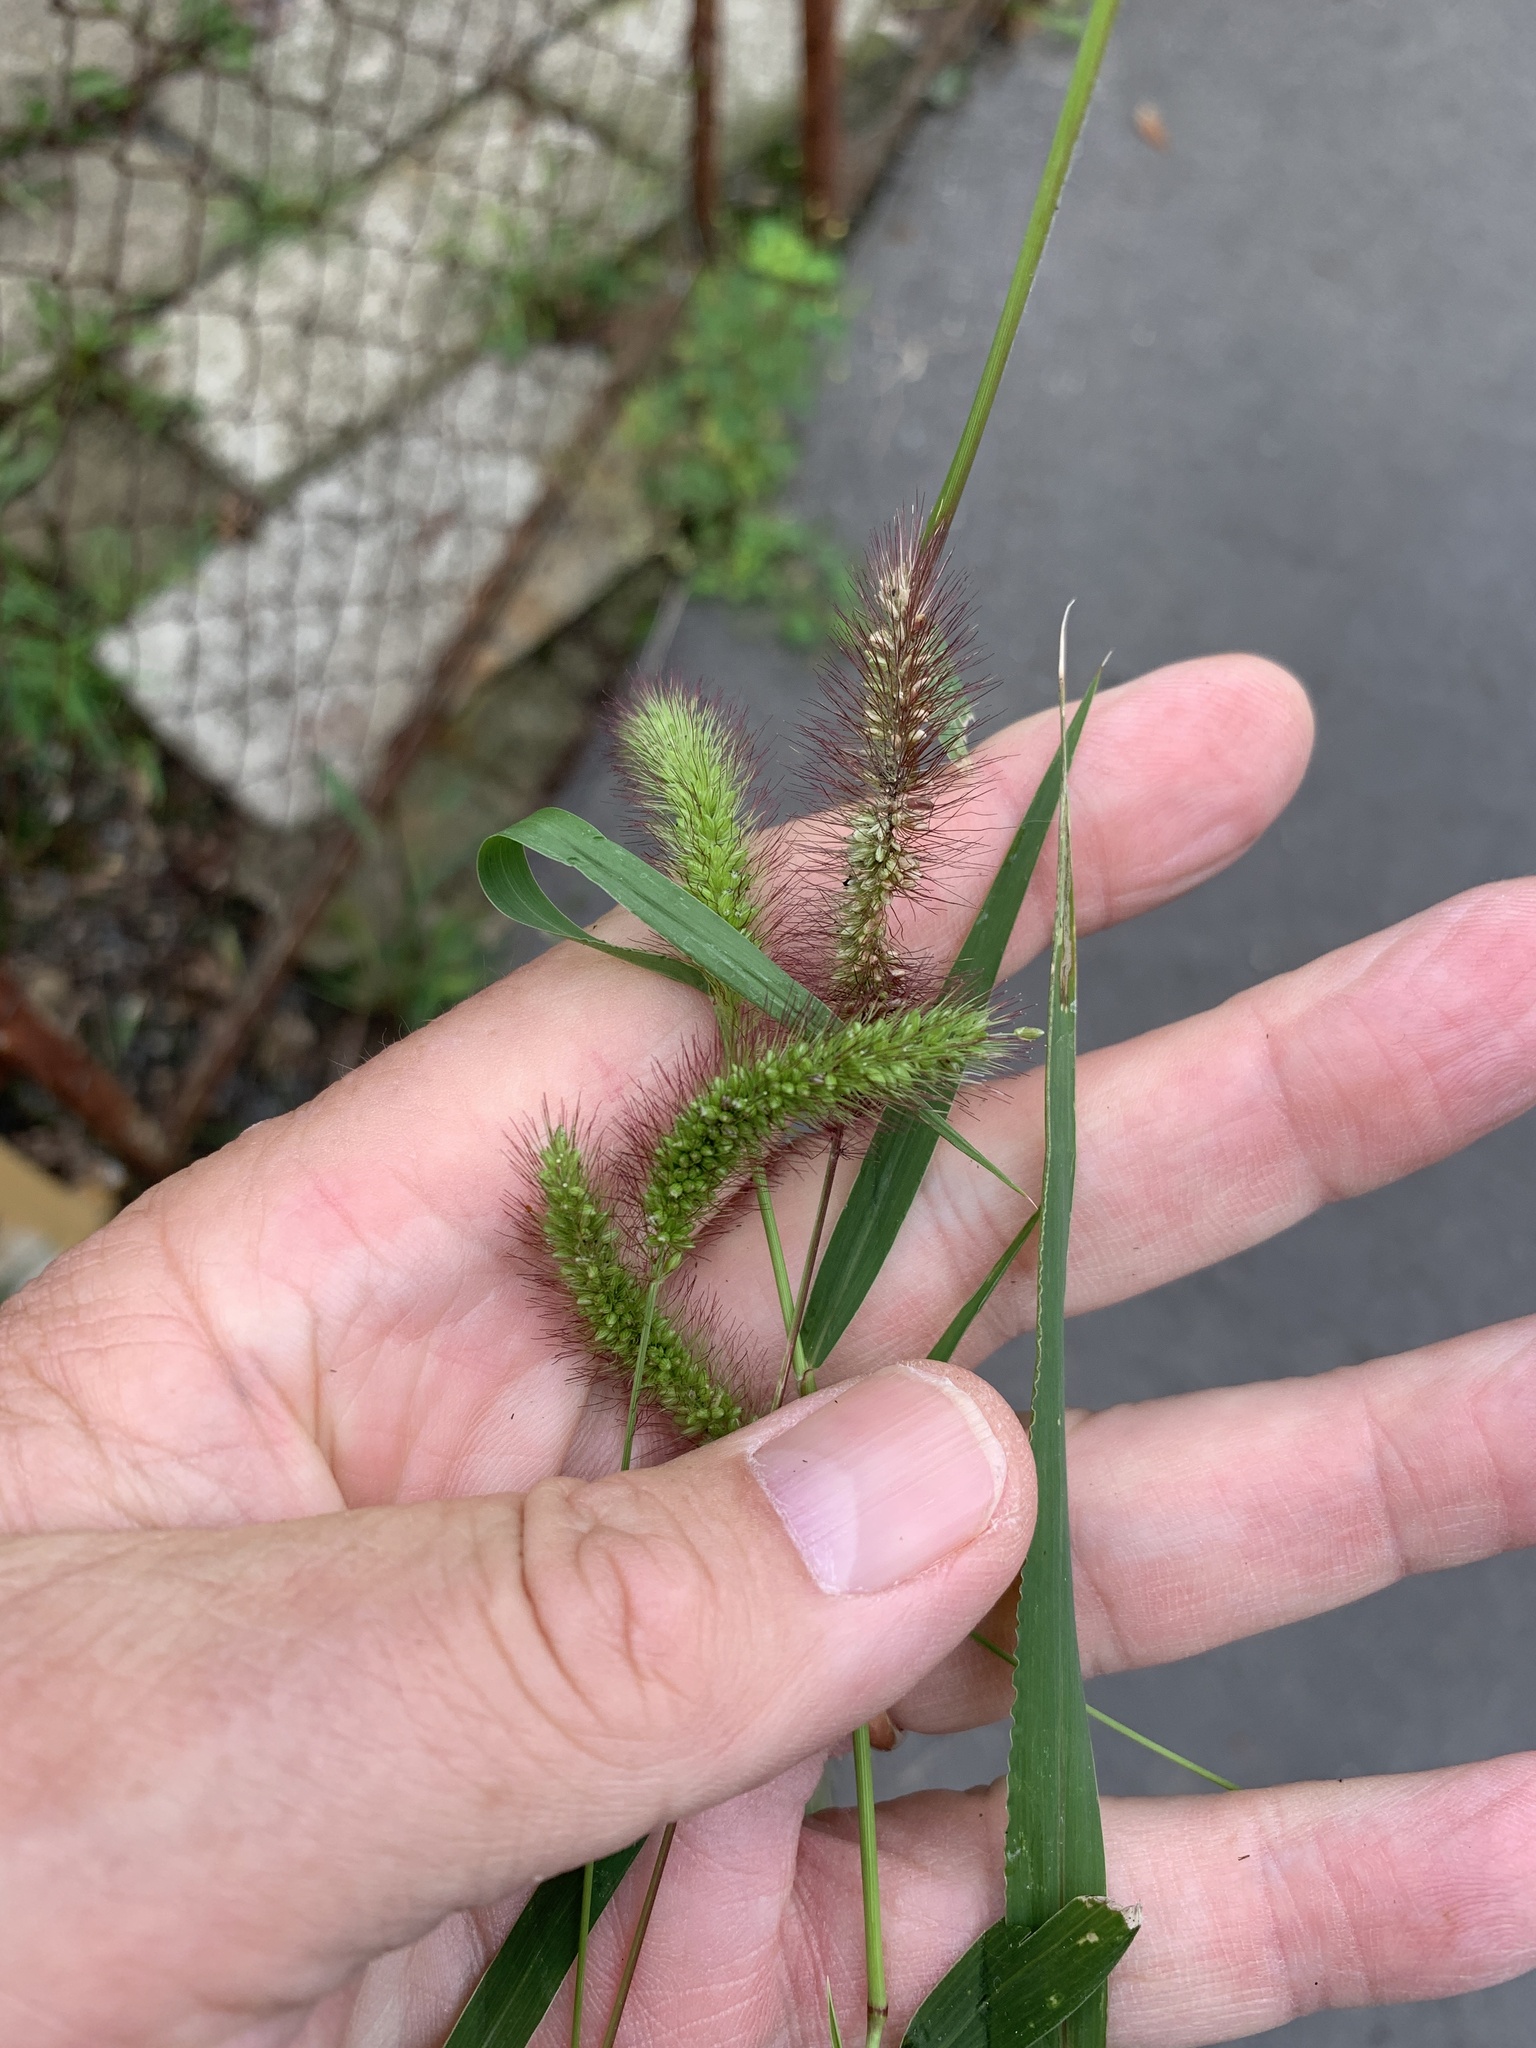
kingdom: Plantae
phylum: Tracheophyta
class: Liliopsida
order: Poales
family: Poaceae
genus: Setaria
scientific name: Setaria viridis
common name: Green bristlegrass
